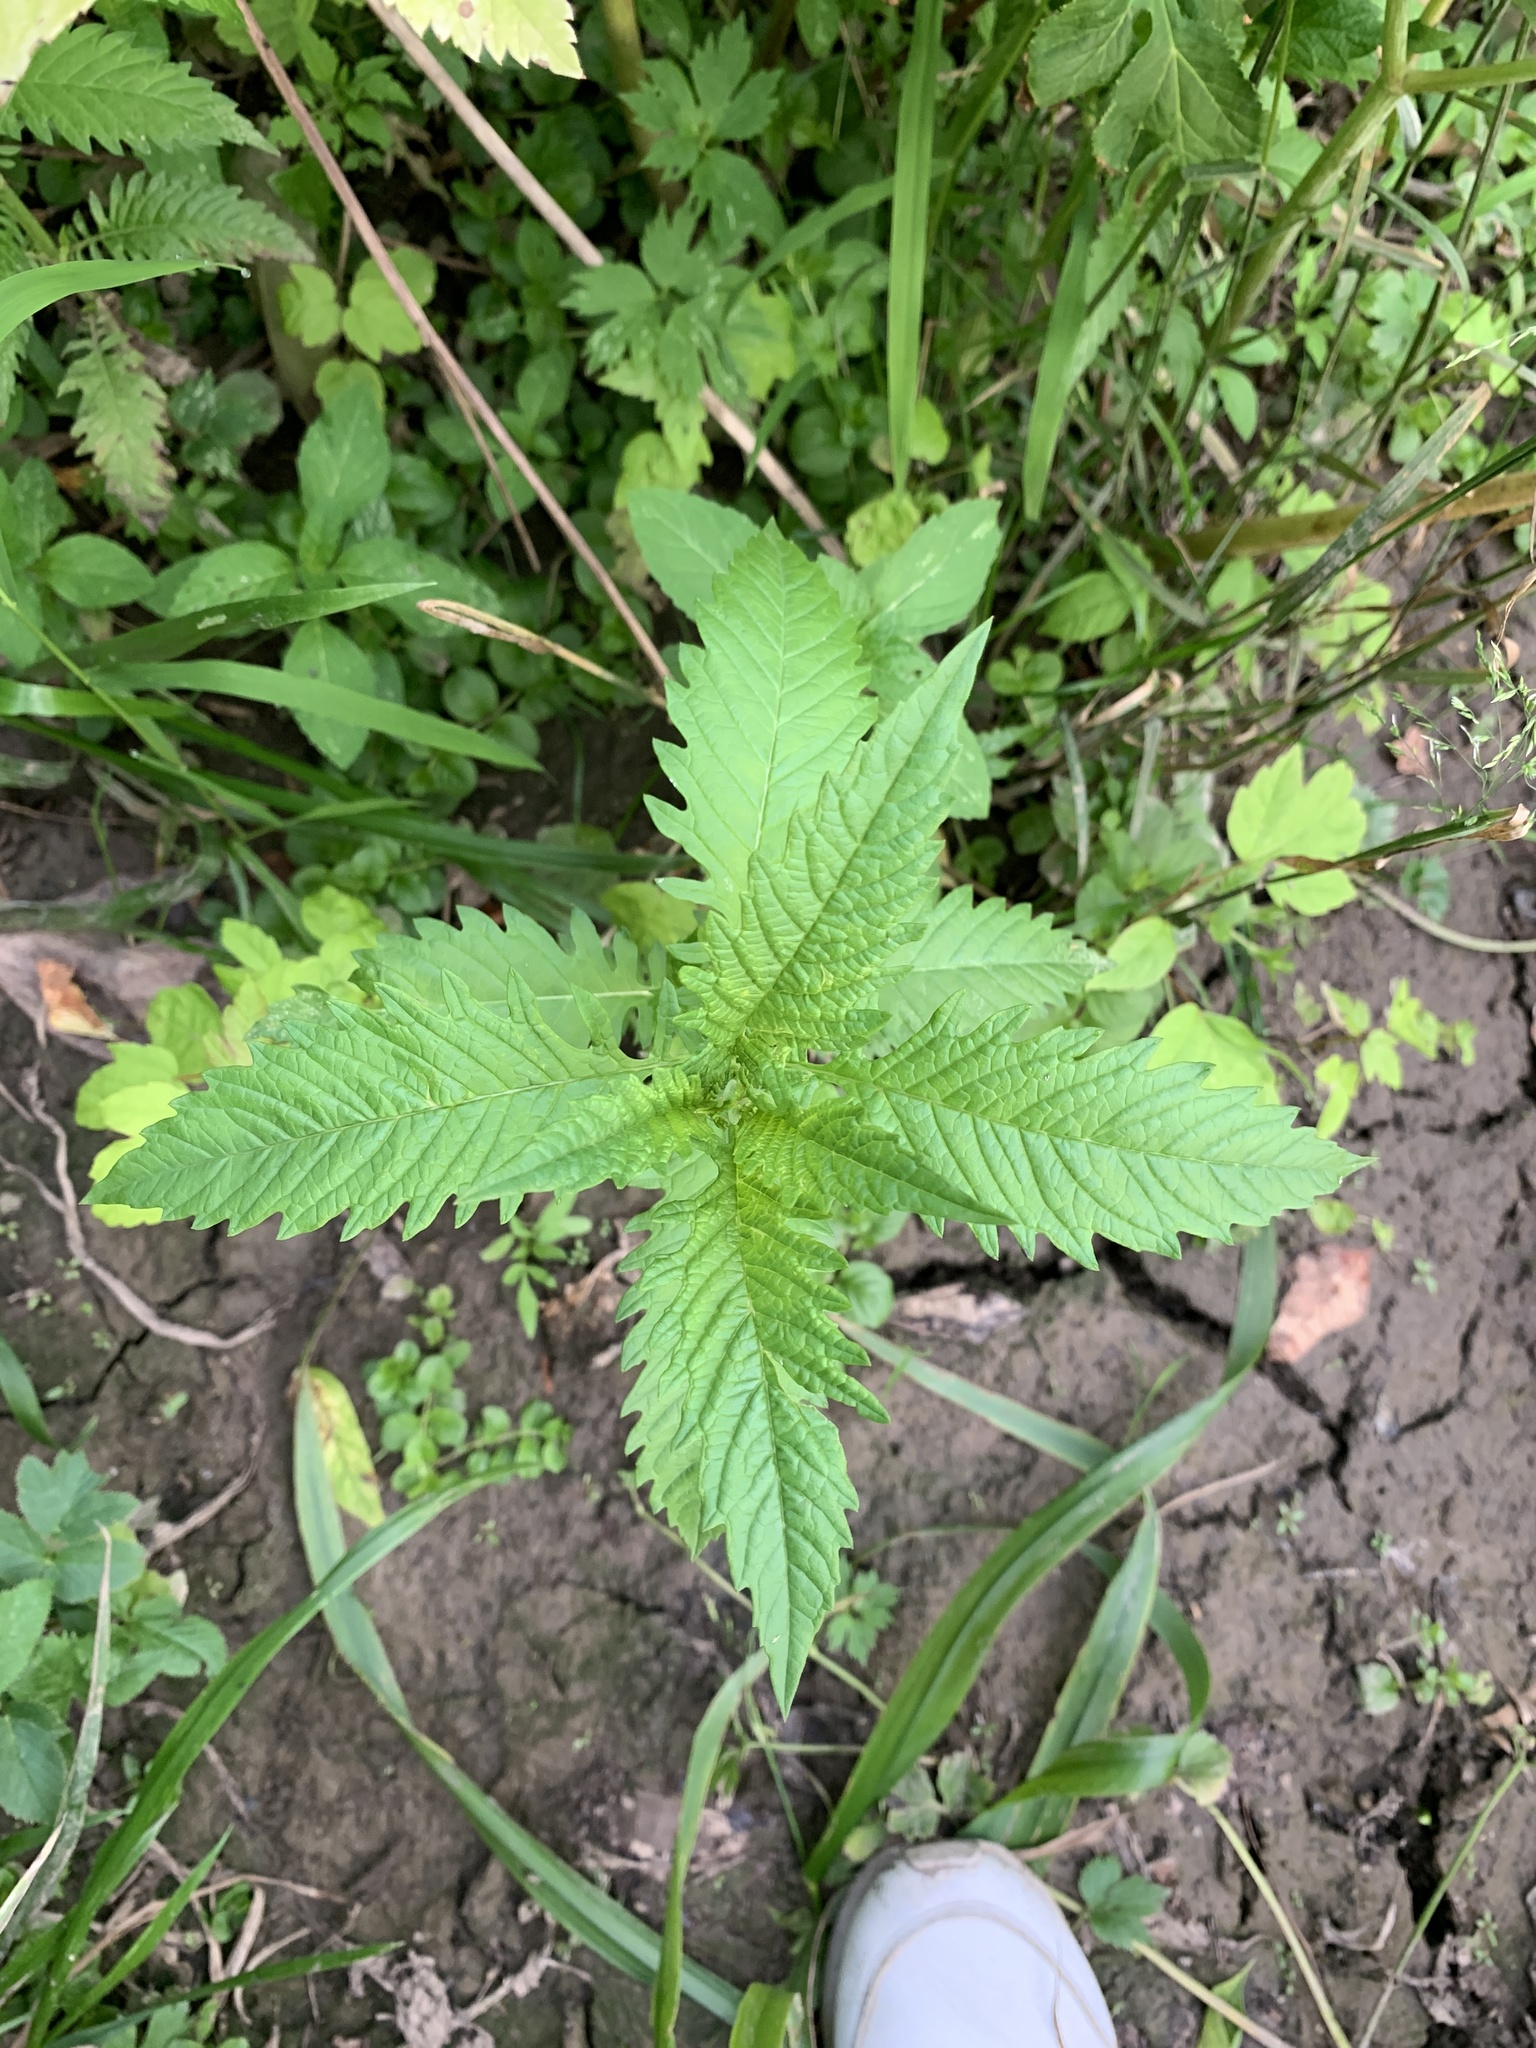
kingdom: Plantae
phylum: Tracheophyta
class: Magnoliopsida
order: Lamiales
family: Lamiaceae
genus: Lycopus
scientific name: Lycopus europaeus
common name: European bugleweed
